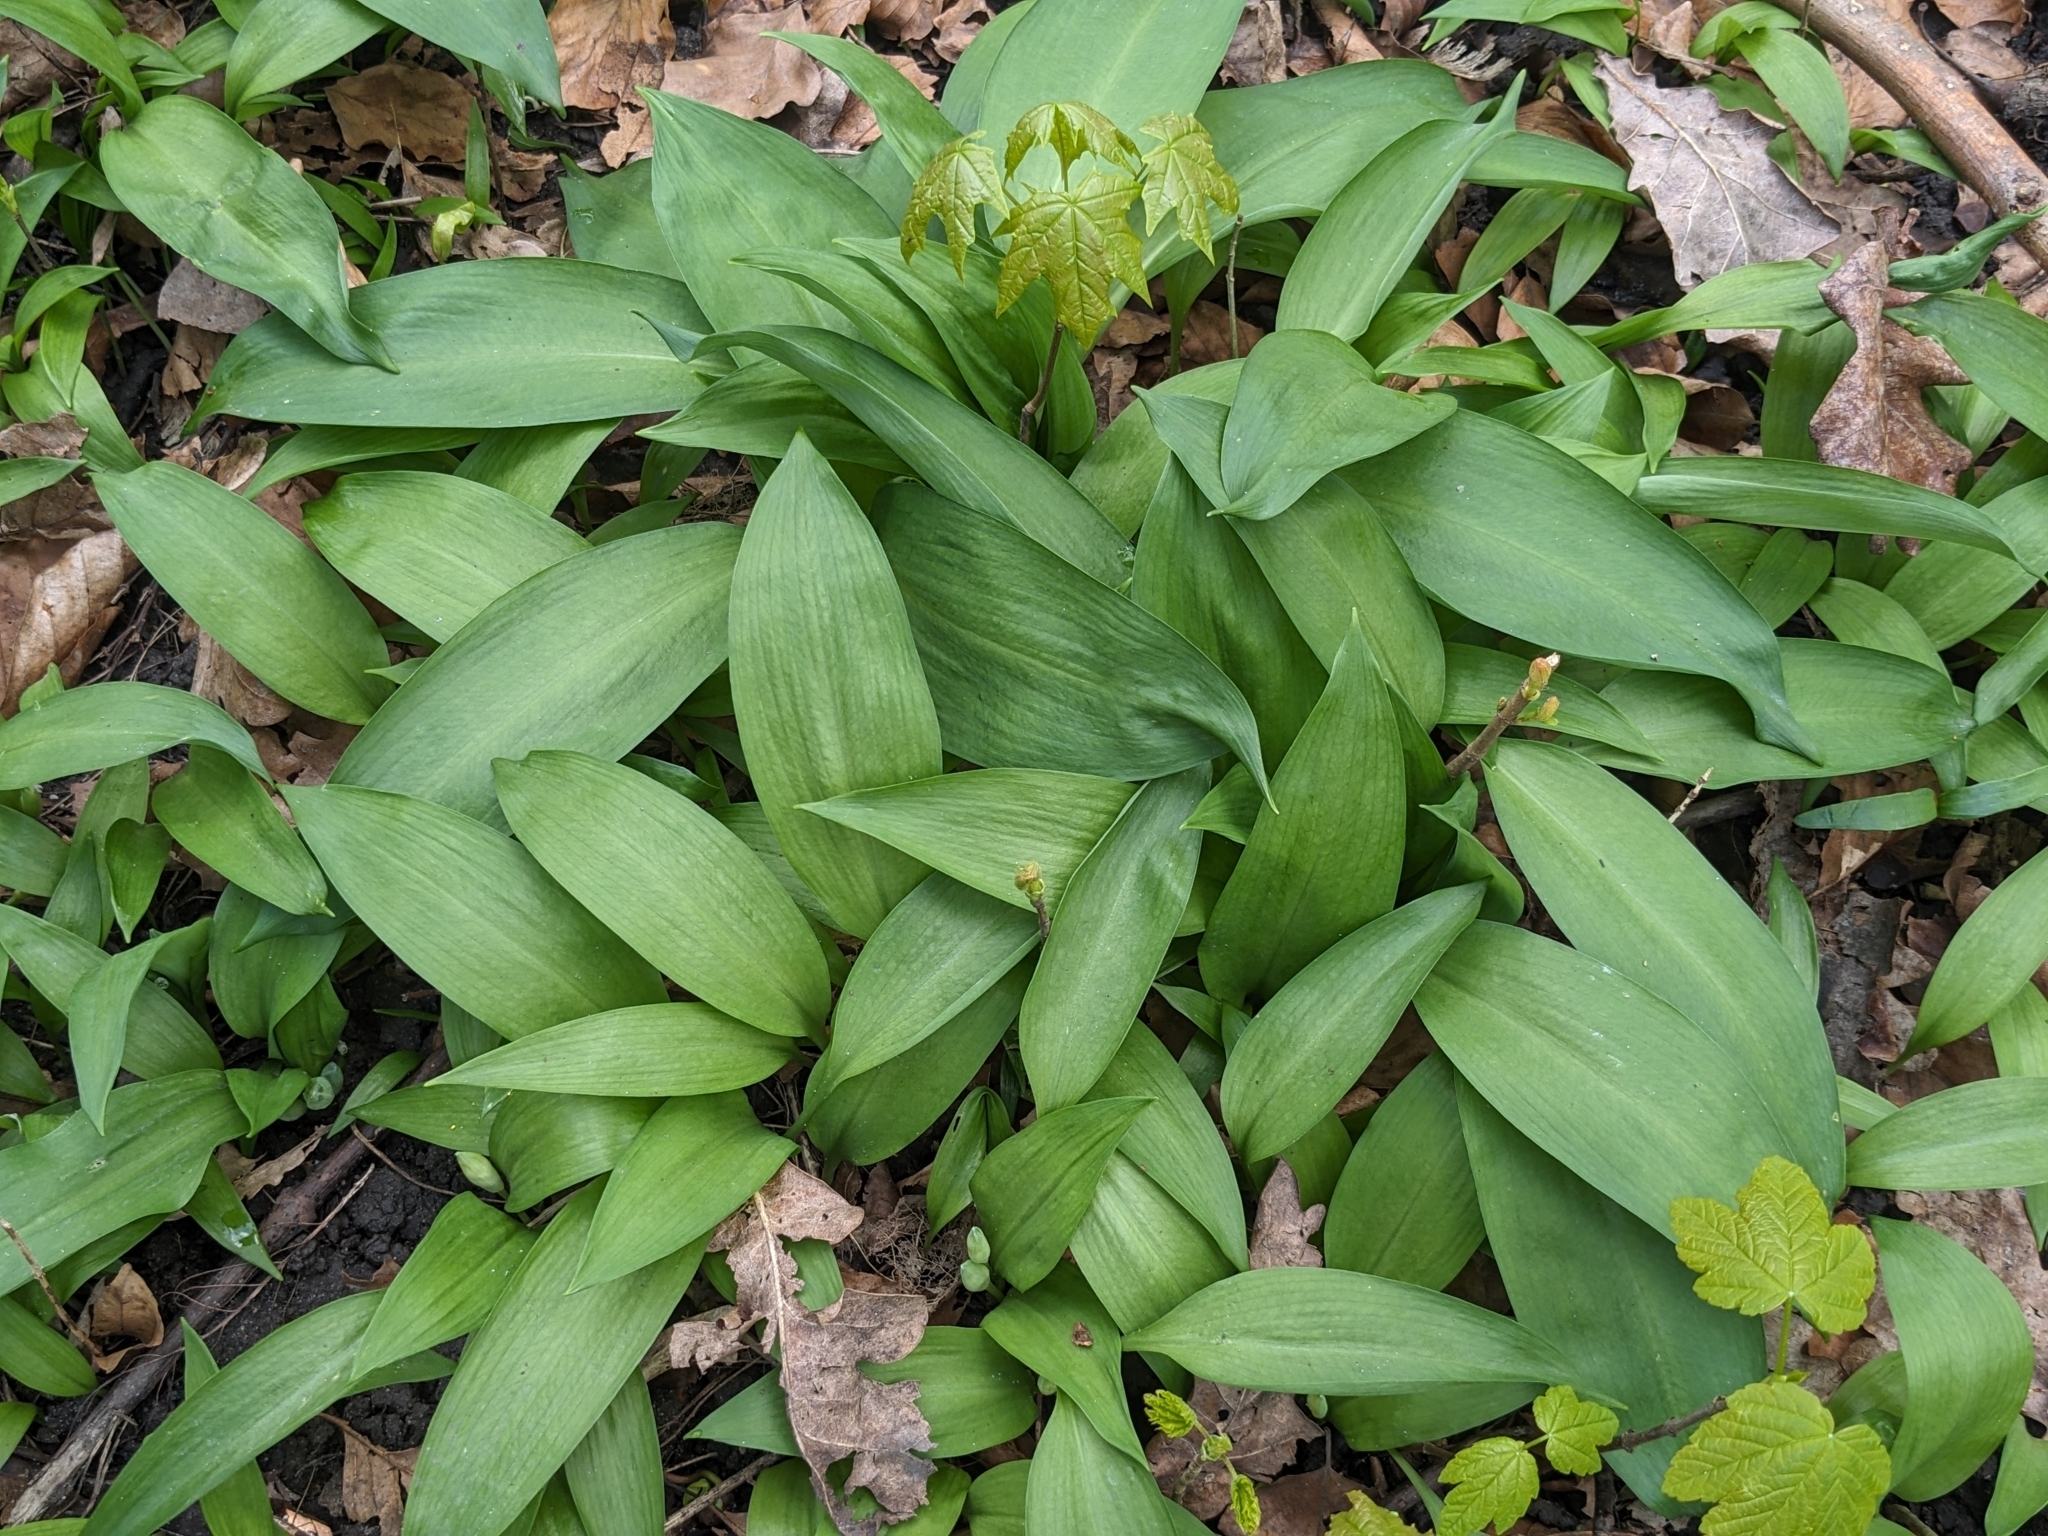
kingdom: Plantae
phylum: Tracheophyta
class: Liliopsida
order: Asparagales
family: Amaryllidaceae
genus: Allium
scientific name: Allium ursinum
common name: Ramsons
